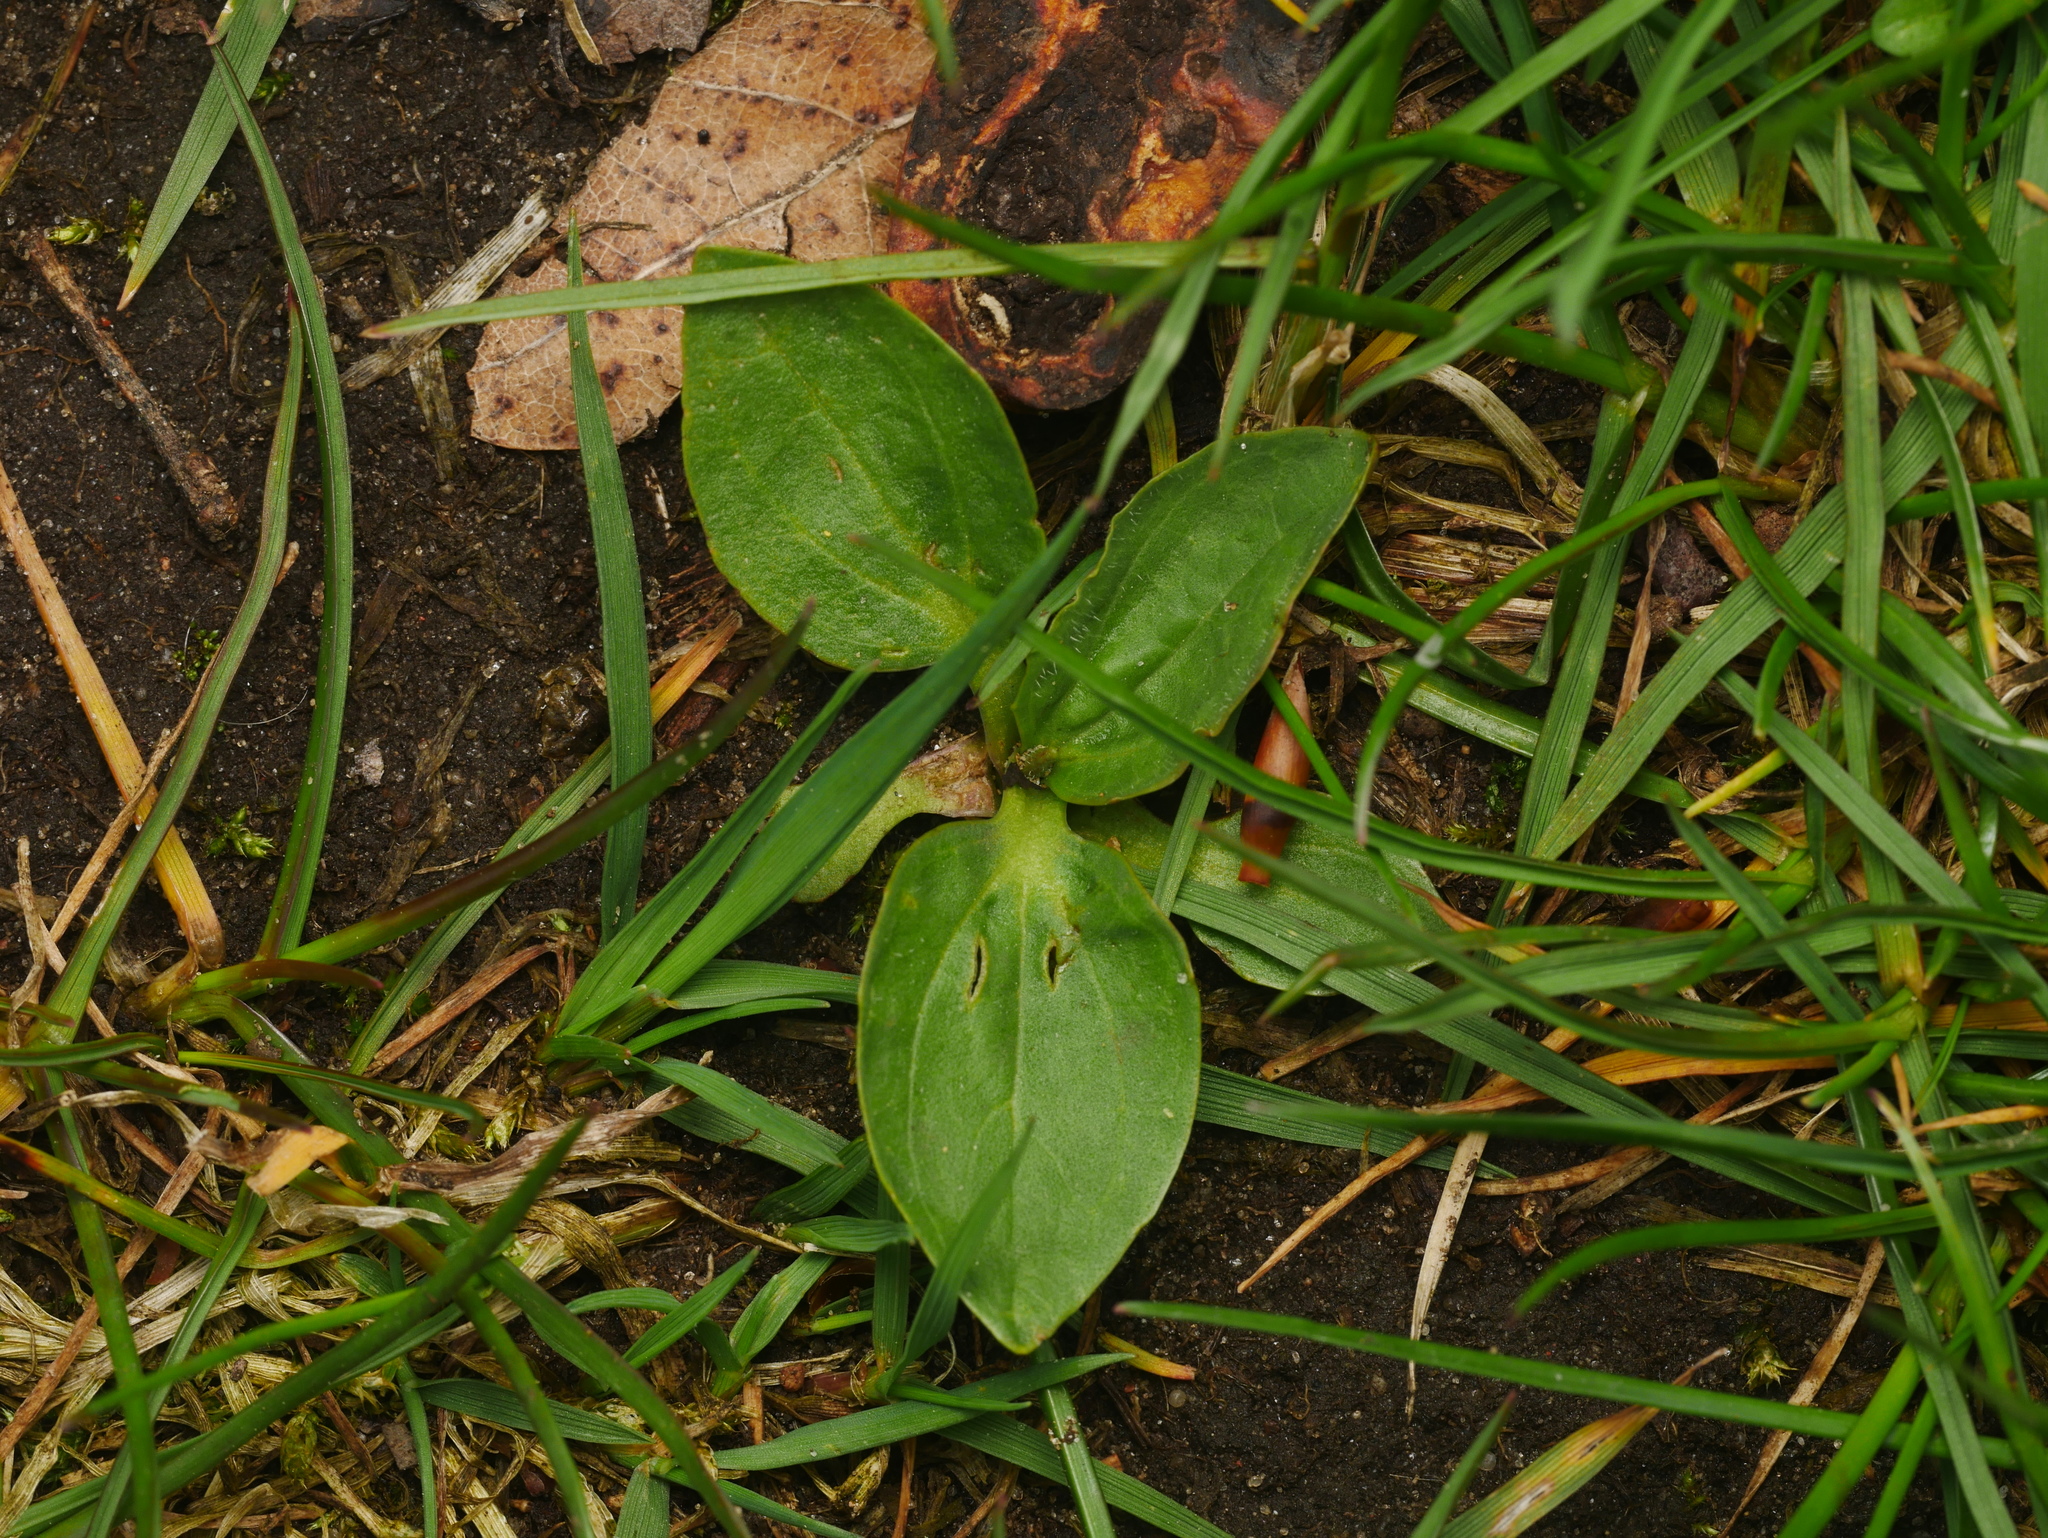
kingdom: Plantae
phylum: Tracheophyta
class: Magnoliopsida
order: Lamiales
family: Plantaginaceae
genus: Plantago
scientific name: Plantago major
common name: Common plantain
